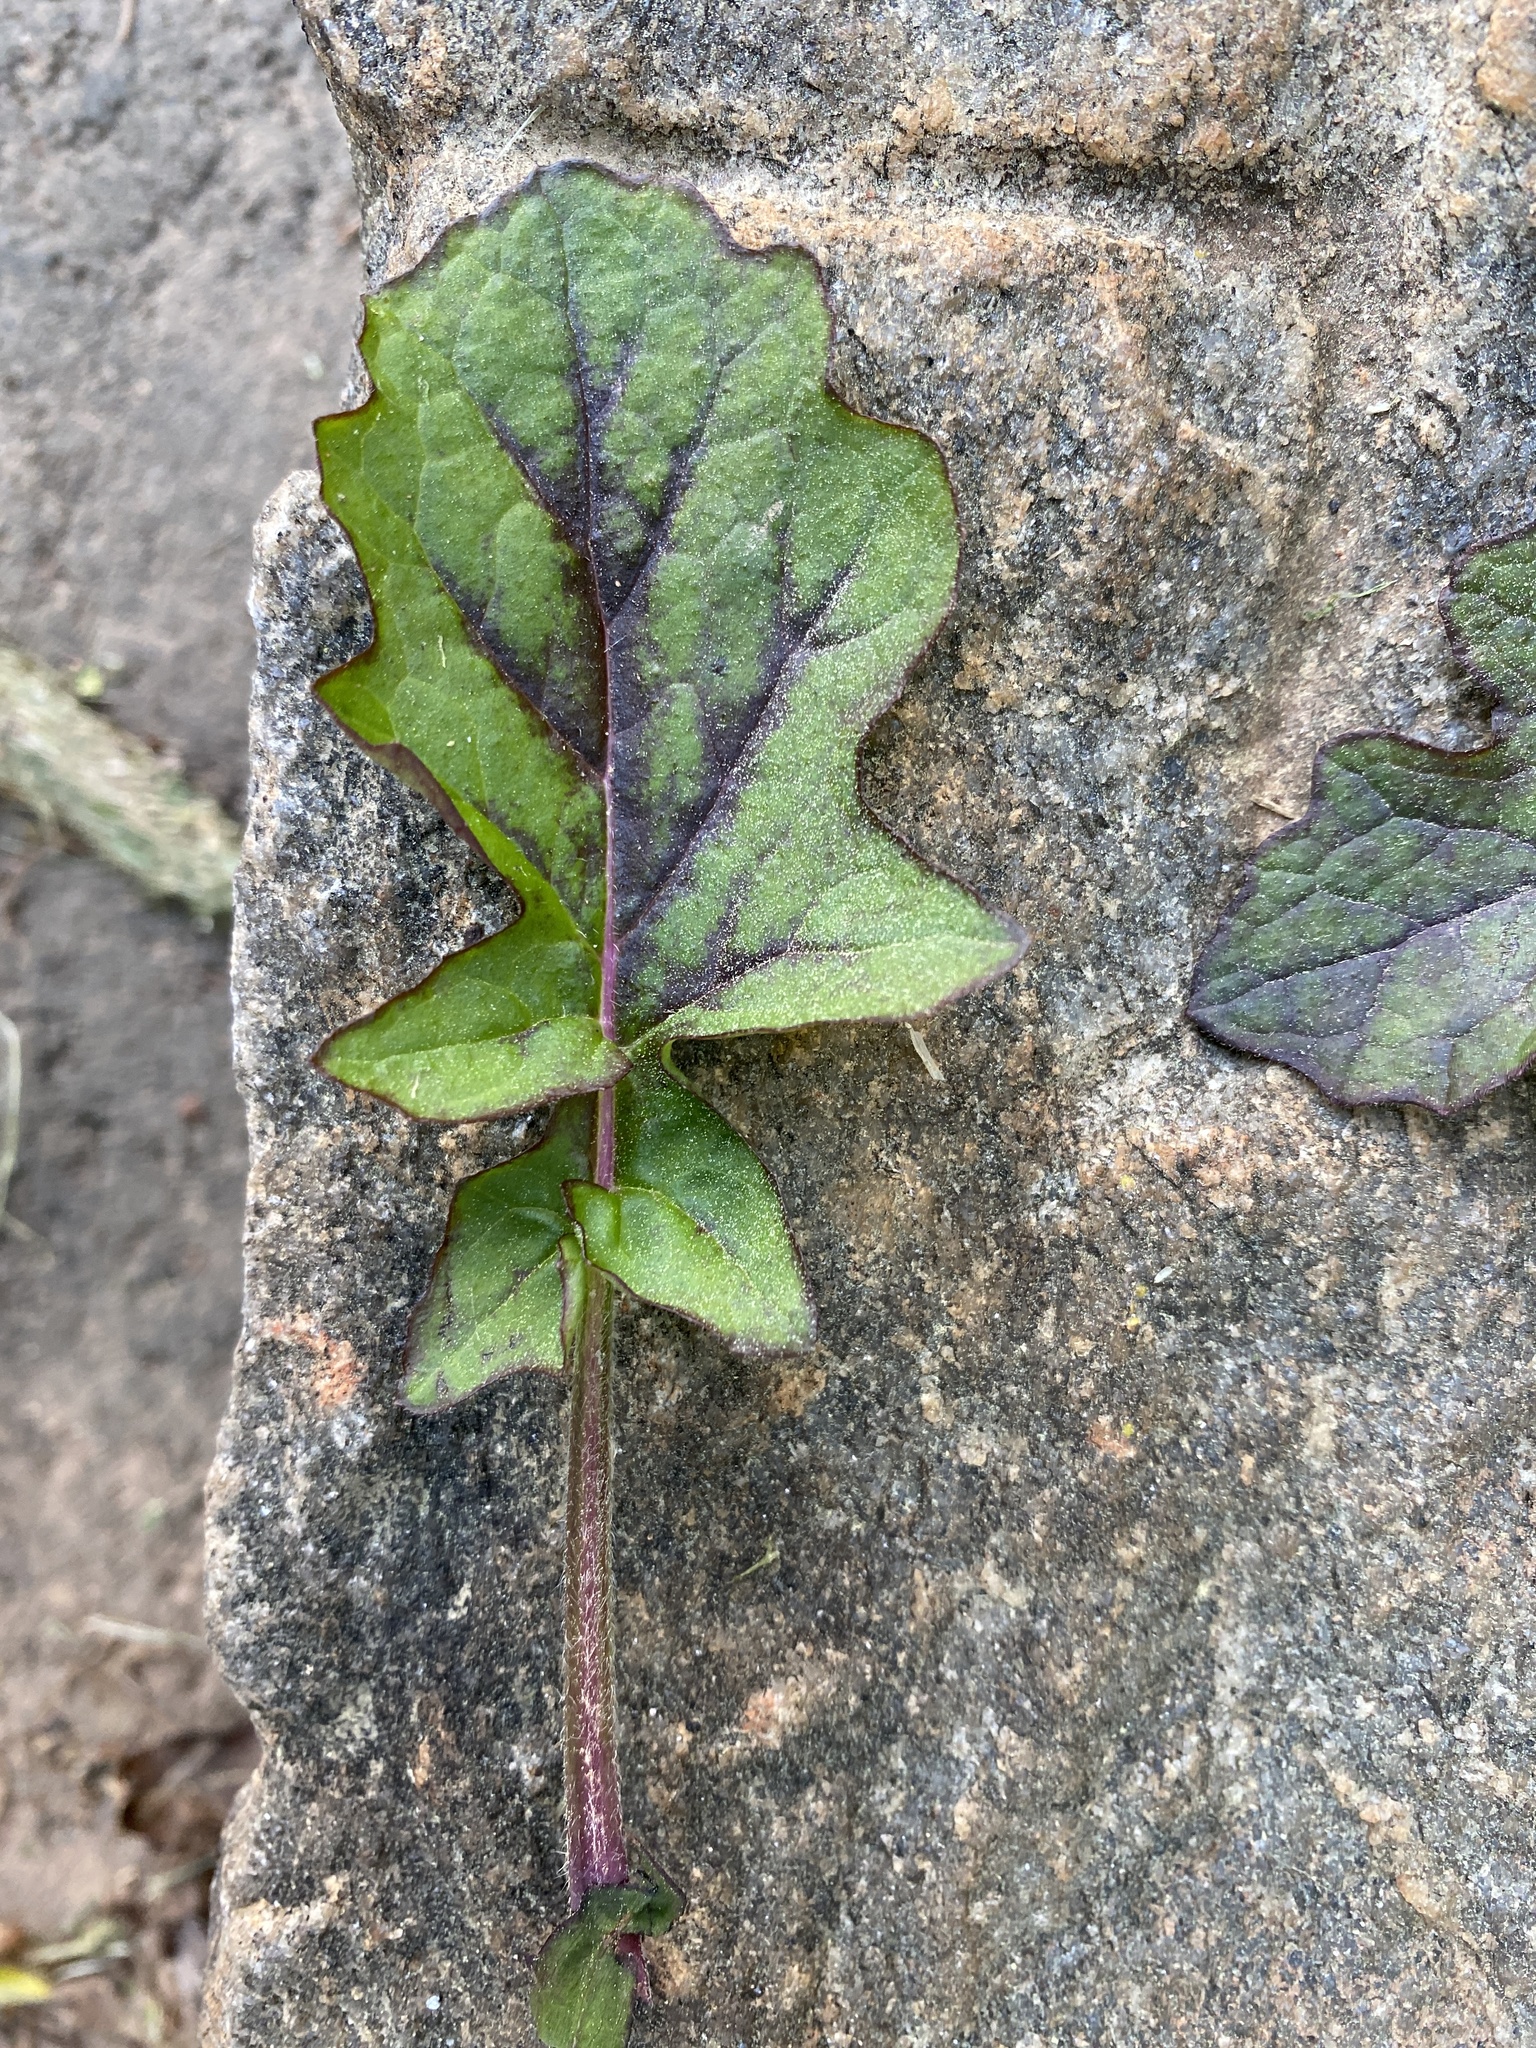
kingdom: Plantae
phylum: Tracheophyta
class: Magnoliopsida
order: Lamiales
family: Lamiaceae
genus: Salvia
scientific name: Salvia lyrata
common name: Cancerweed
